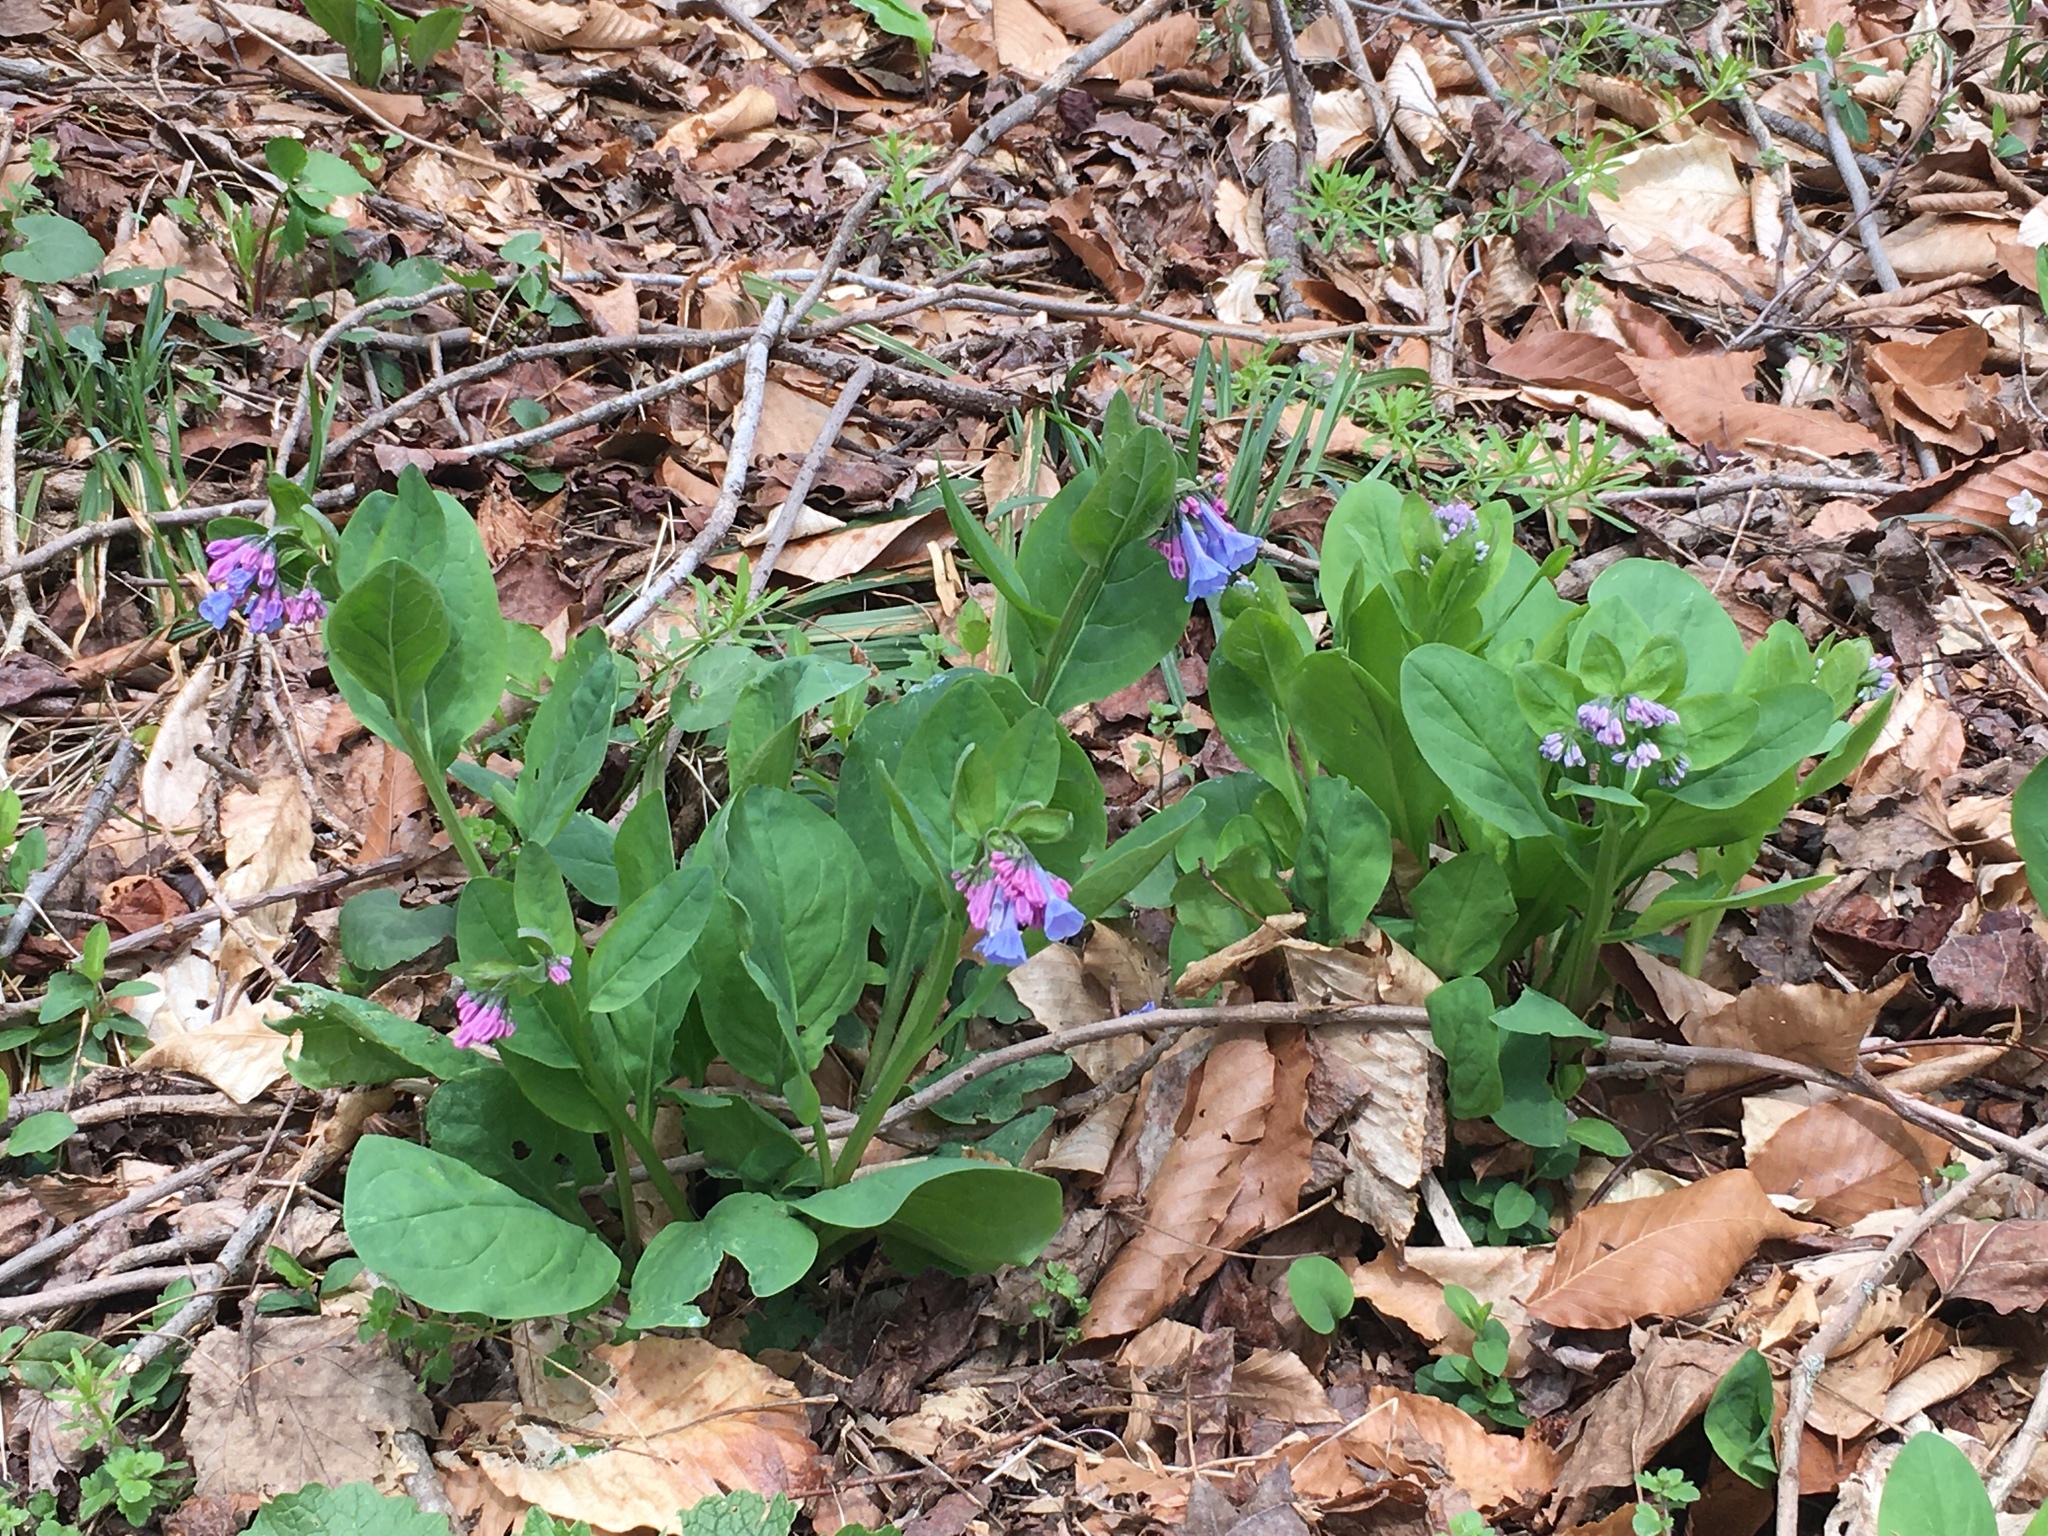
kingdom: Plantae
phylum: Tracheophyta
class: Magnoliopsida
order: Boraginales
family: Boraginaceae
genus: Mertensia
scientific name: Mertensia virginica
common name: Virginia bluebells
